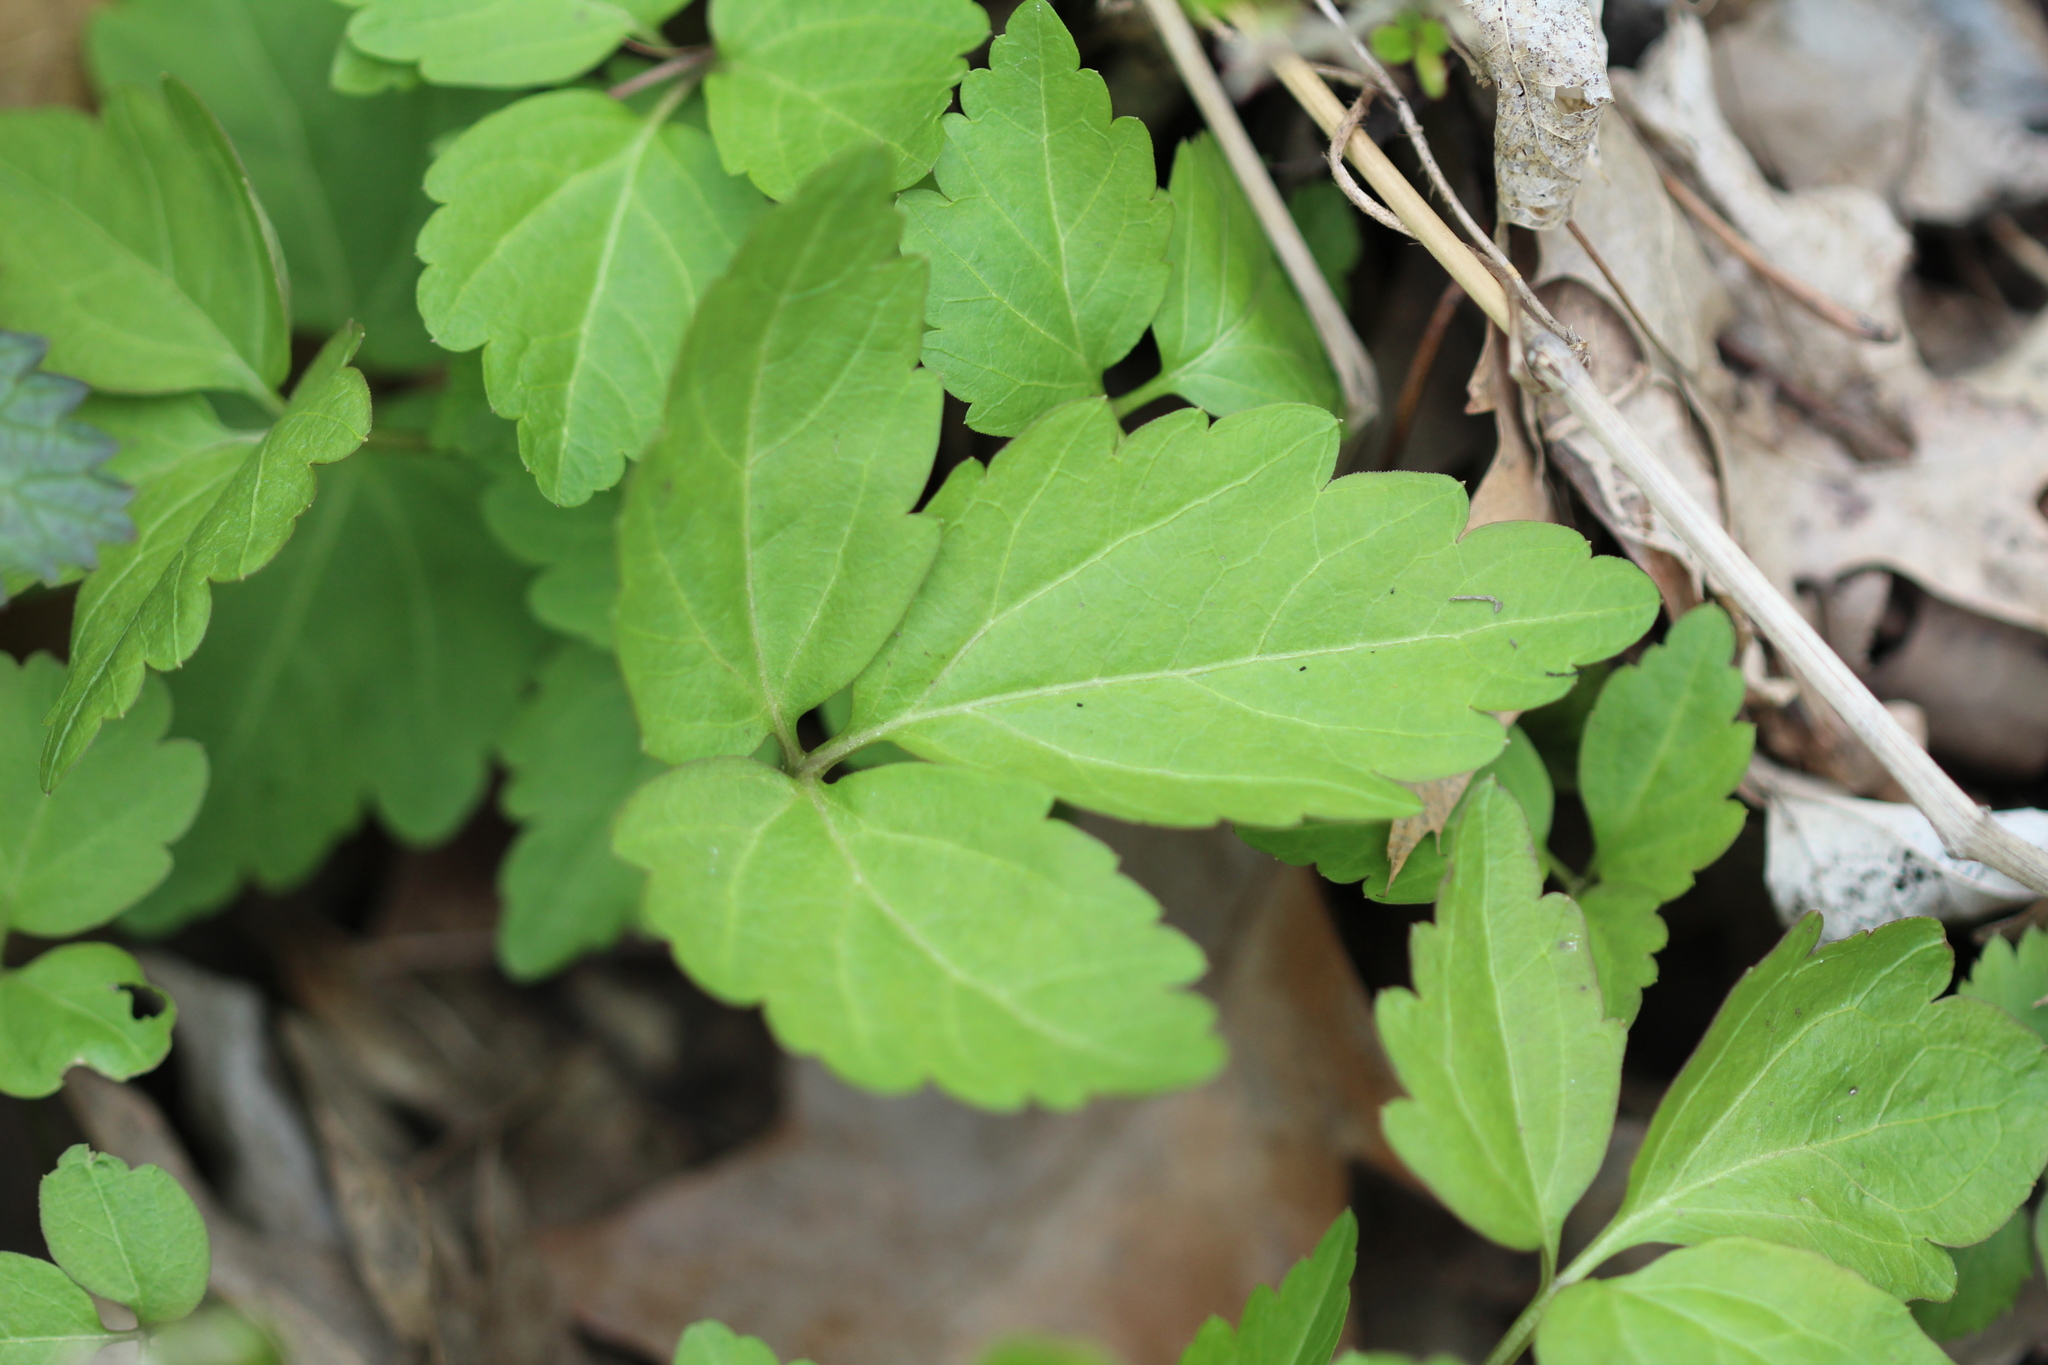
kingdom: Plantae
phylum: Tracheophyta
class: Magnoliopsida
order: Brassicales
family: Brassicaceae
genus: Cardamine
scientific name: Cardamine diphylla
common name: Broad-leaved toothwort
